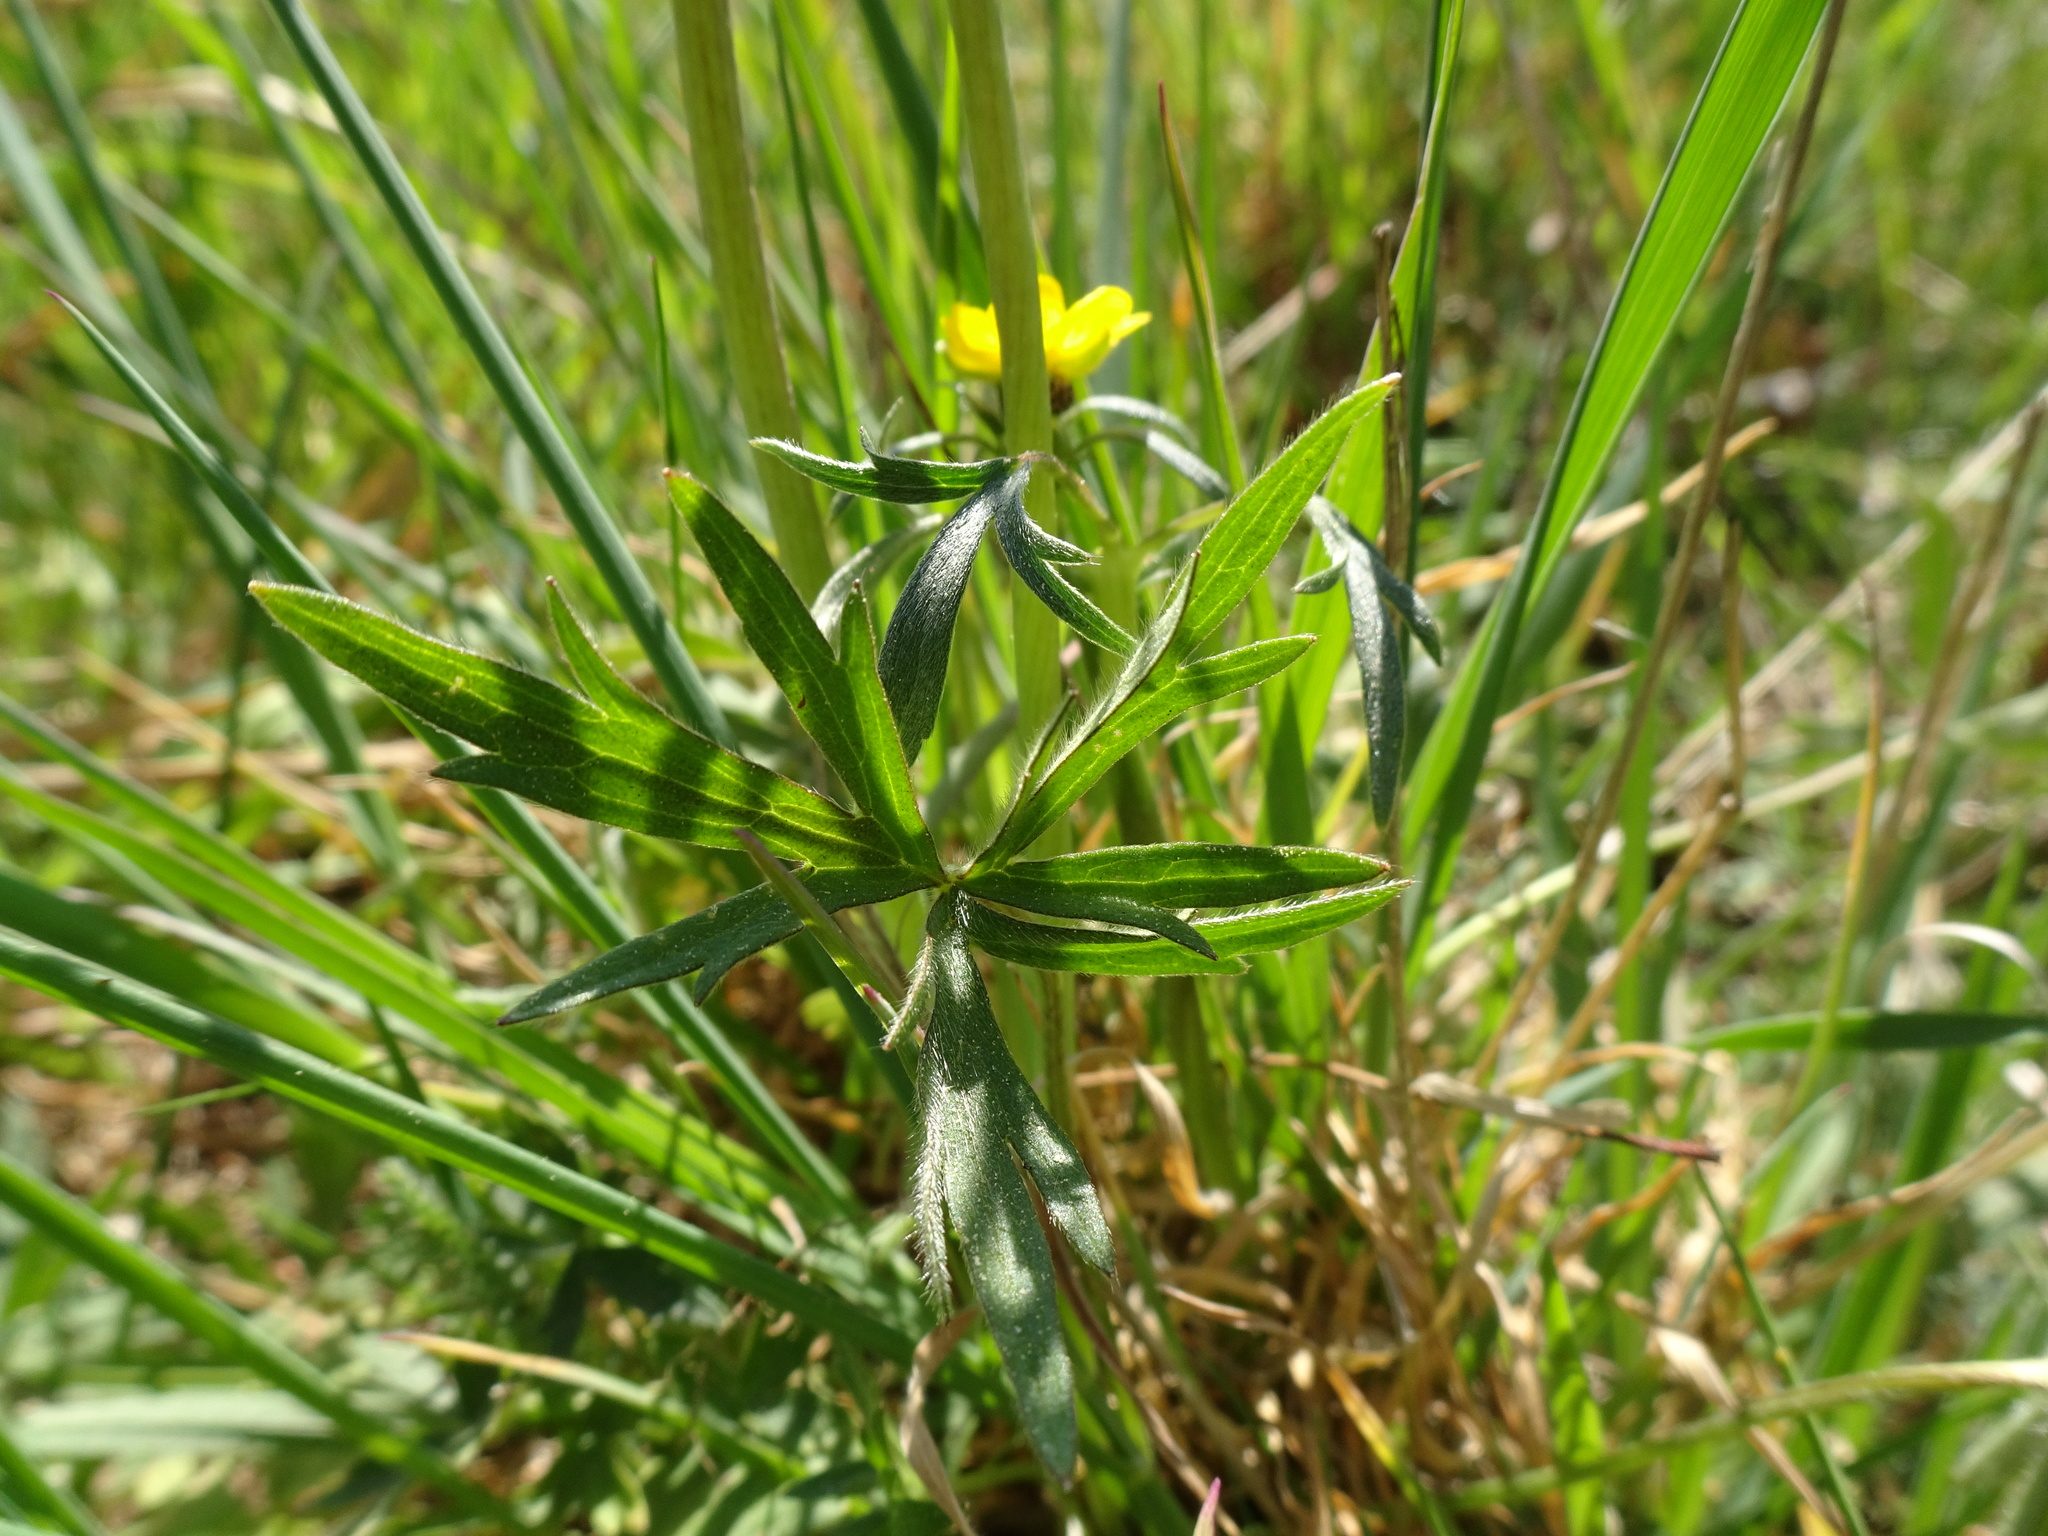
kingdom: Plantae
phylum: Tracheophyta
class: Magnoliopsida
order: Ranunculales
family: Ranunculaceae
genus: Ranunculus
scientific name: Ranunculus acris
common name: Meadow buttercup
